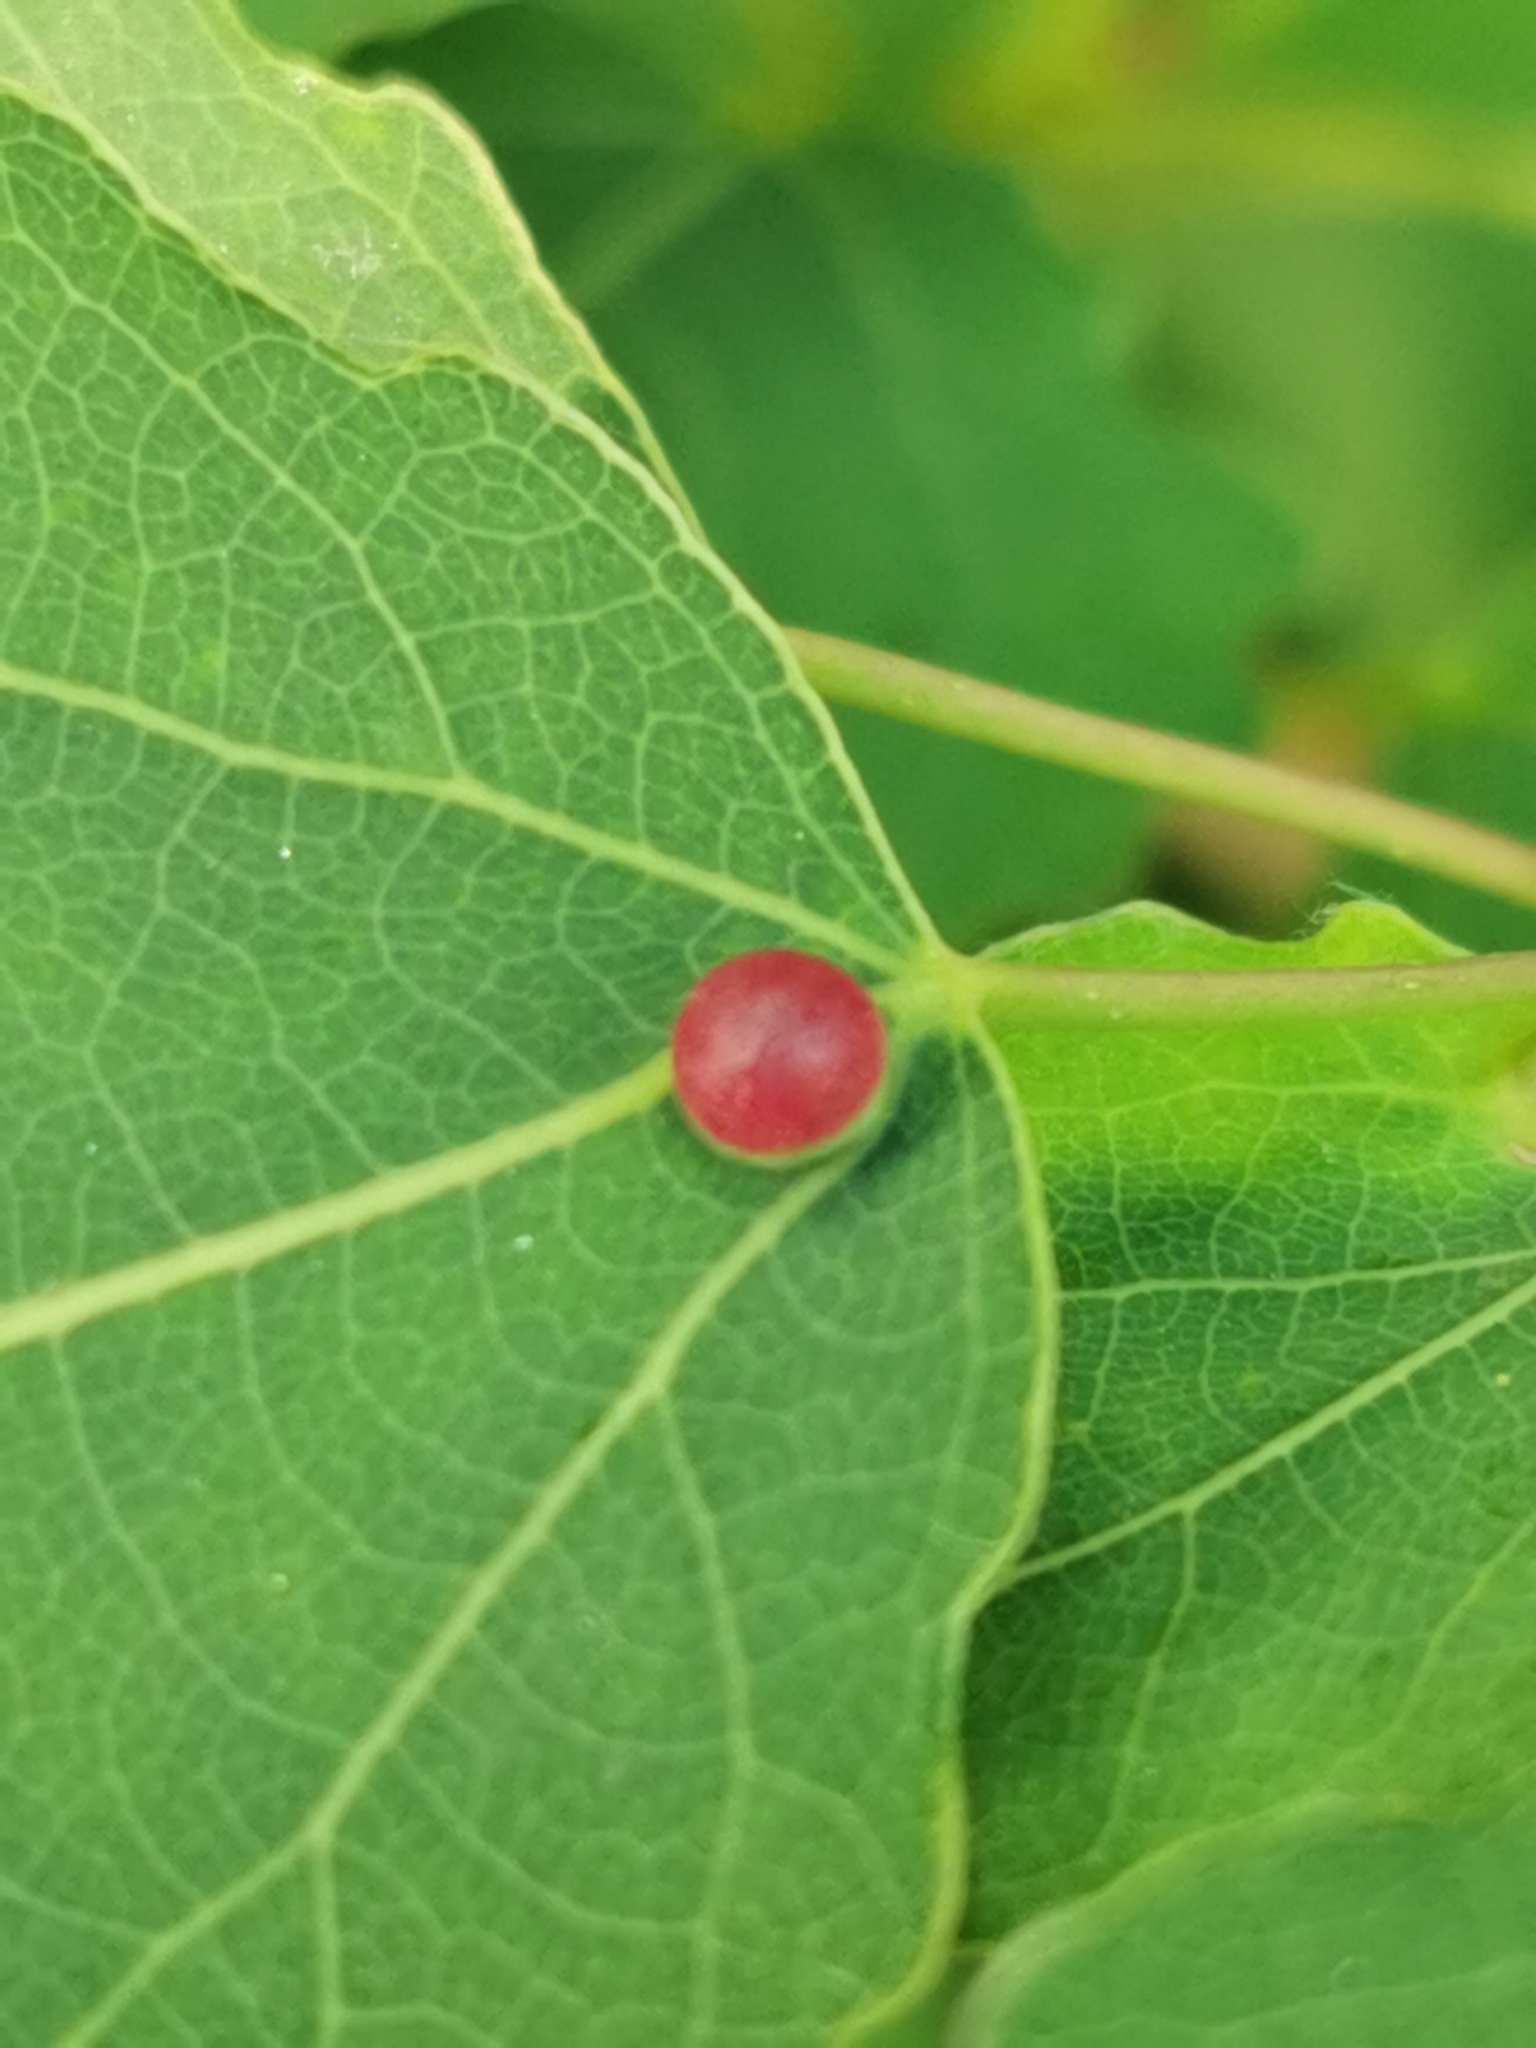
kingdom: Animalia
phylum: Arthropoda
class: Insecta
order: Diptera
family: Cecidomyiidae
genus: Harmandiola
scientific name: Harmandiola tremulae
